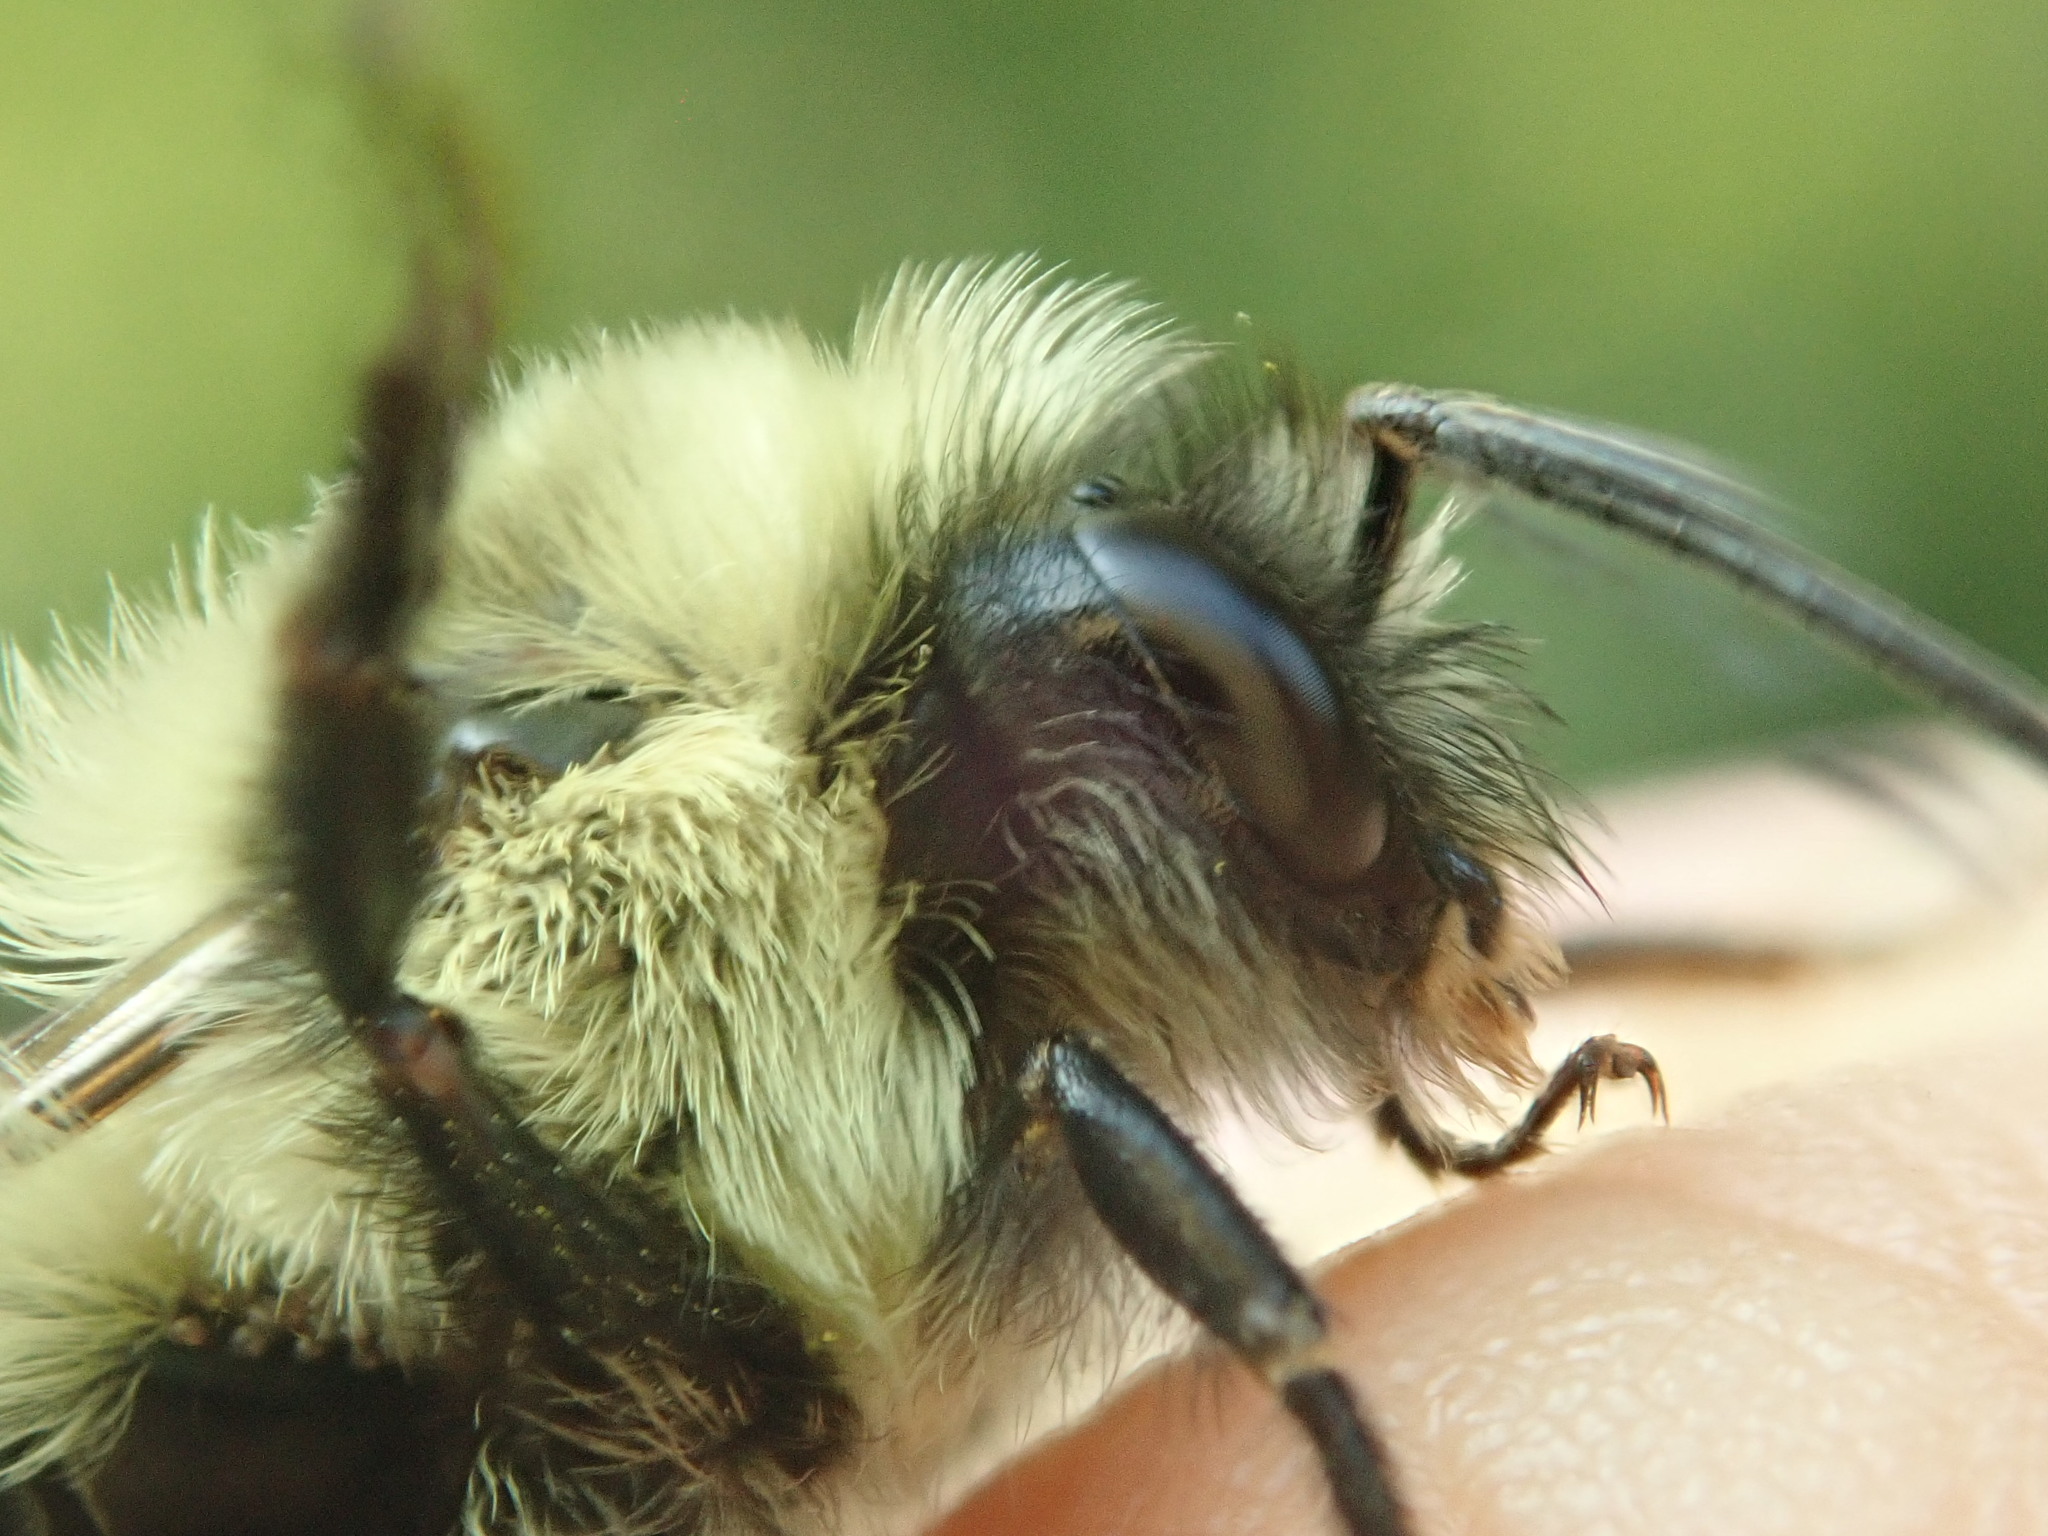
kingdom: Animalia
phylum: Arthropoda
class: Insecta
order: Hymenoptera
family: Apidae
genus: Bombus
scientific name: Bombus impatiens
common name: Common eastern bumble bee
